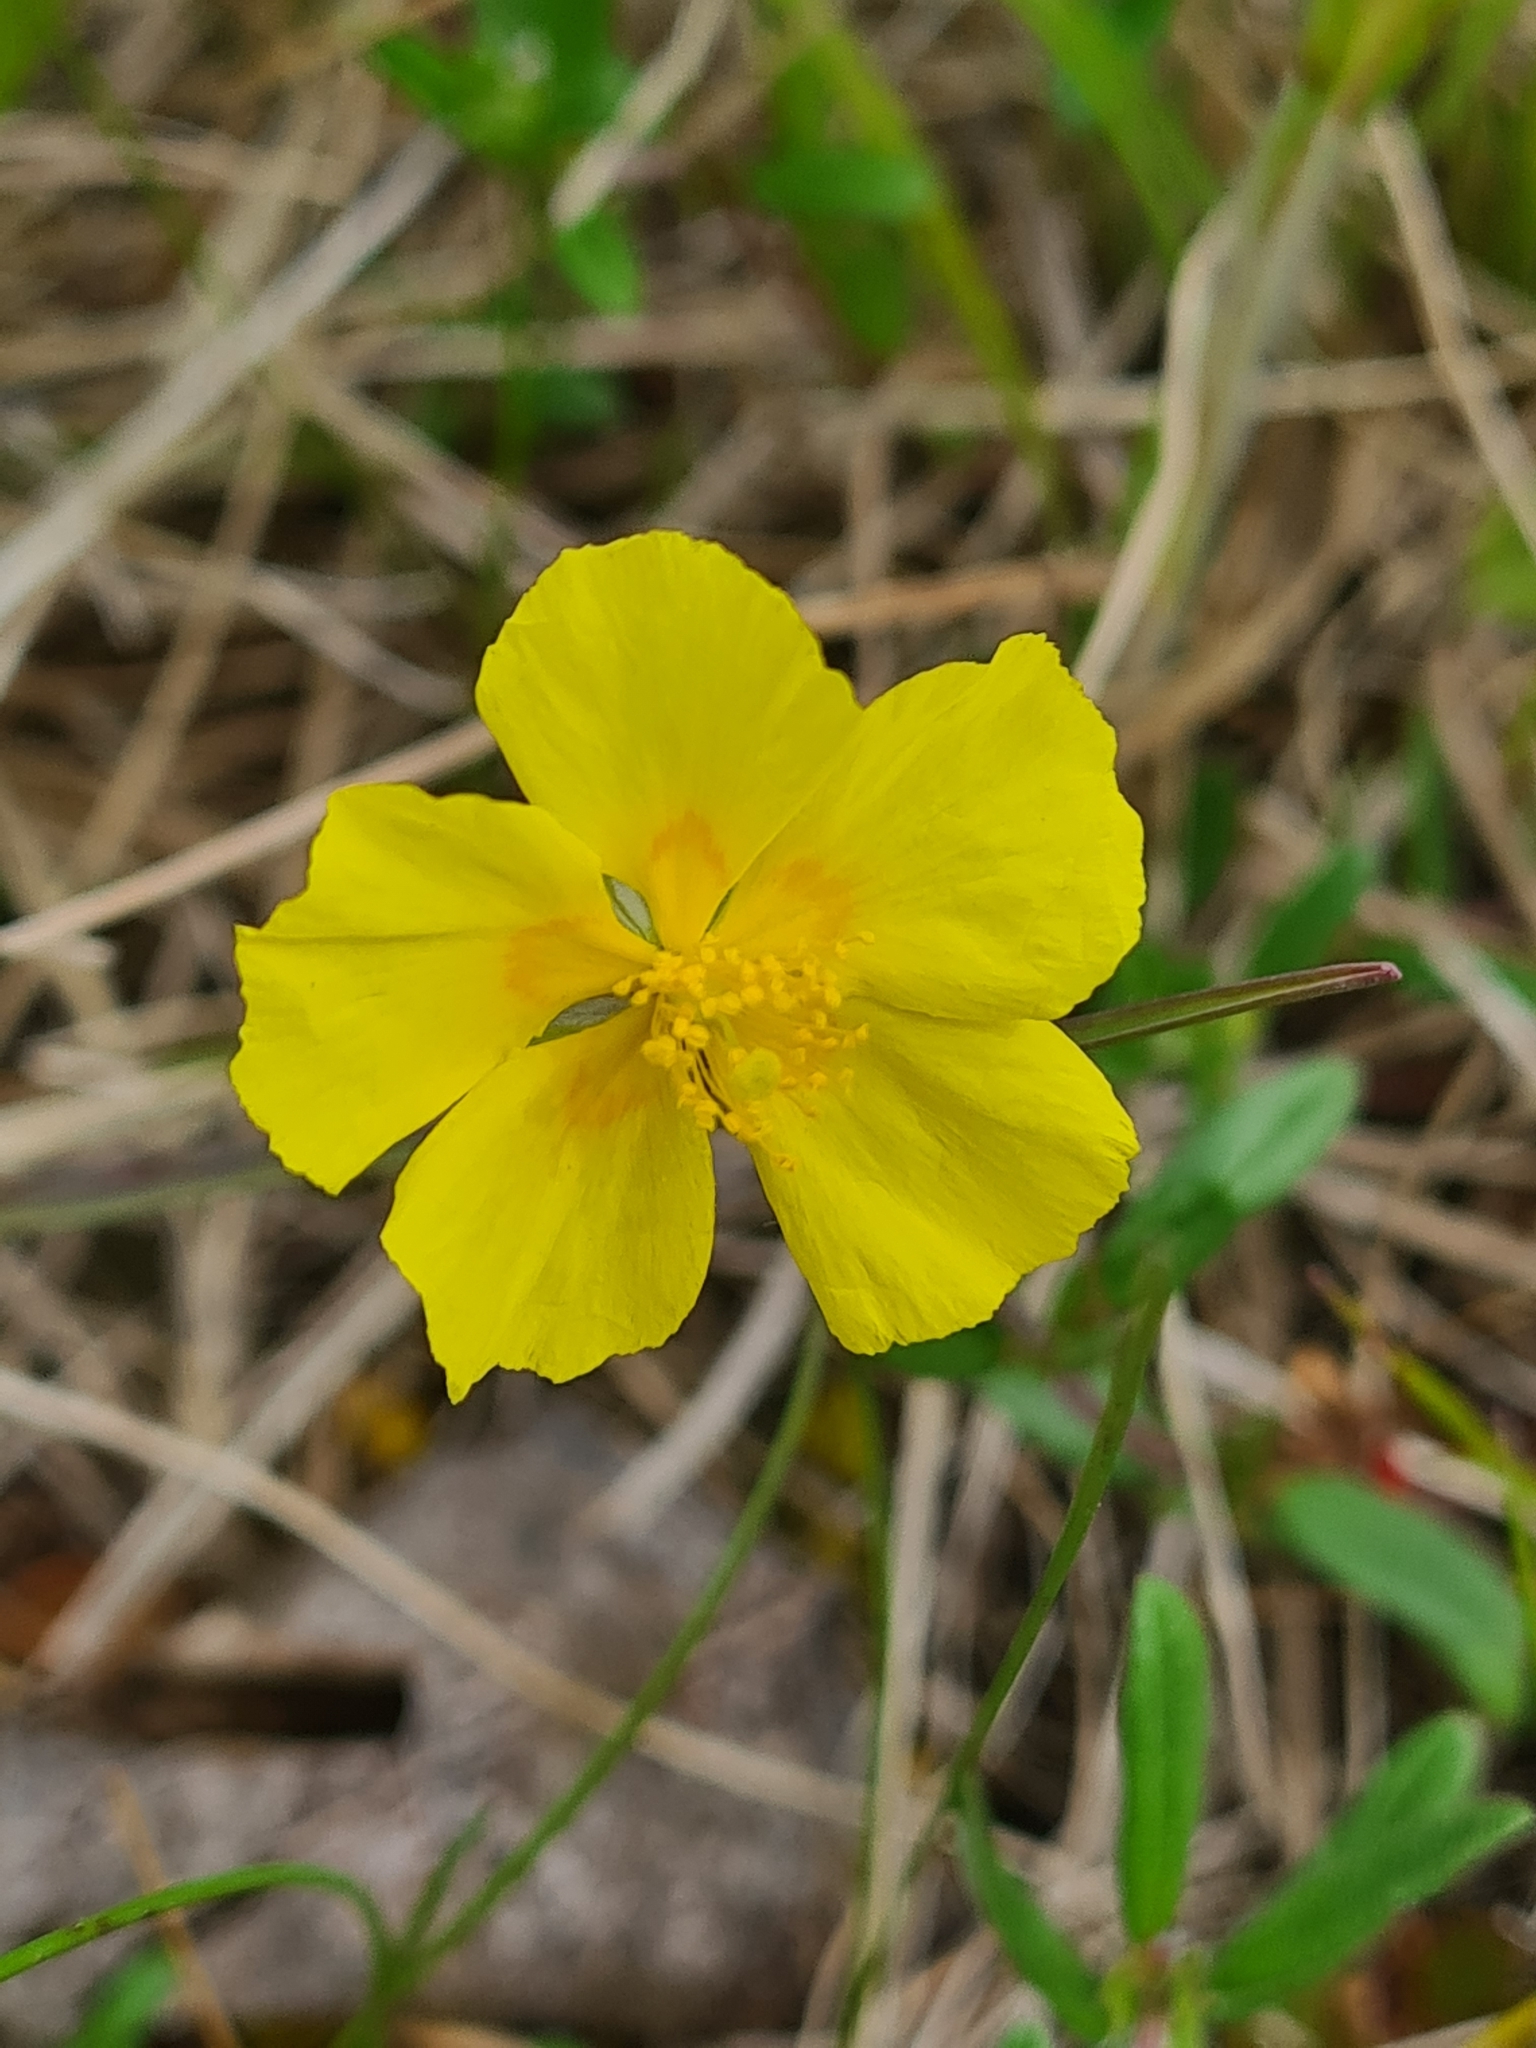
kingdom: Plantae
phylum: Tracheophyta
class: Magnoliopsida
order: Malvales
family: Cistaceae
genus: Helianthemum
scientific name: Helianthemum nummularium
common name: Common rock-rose
